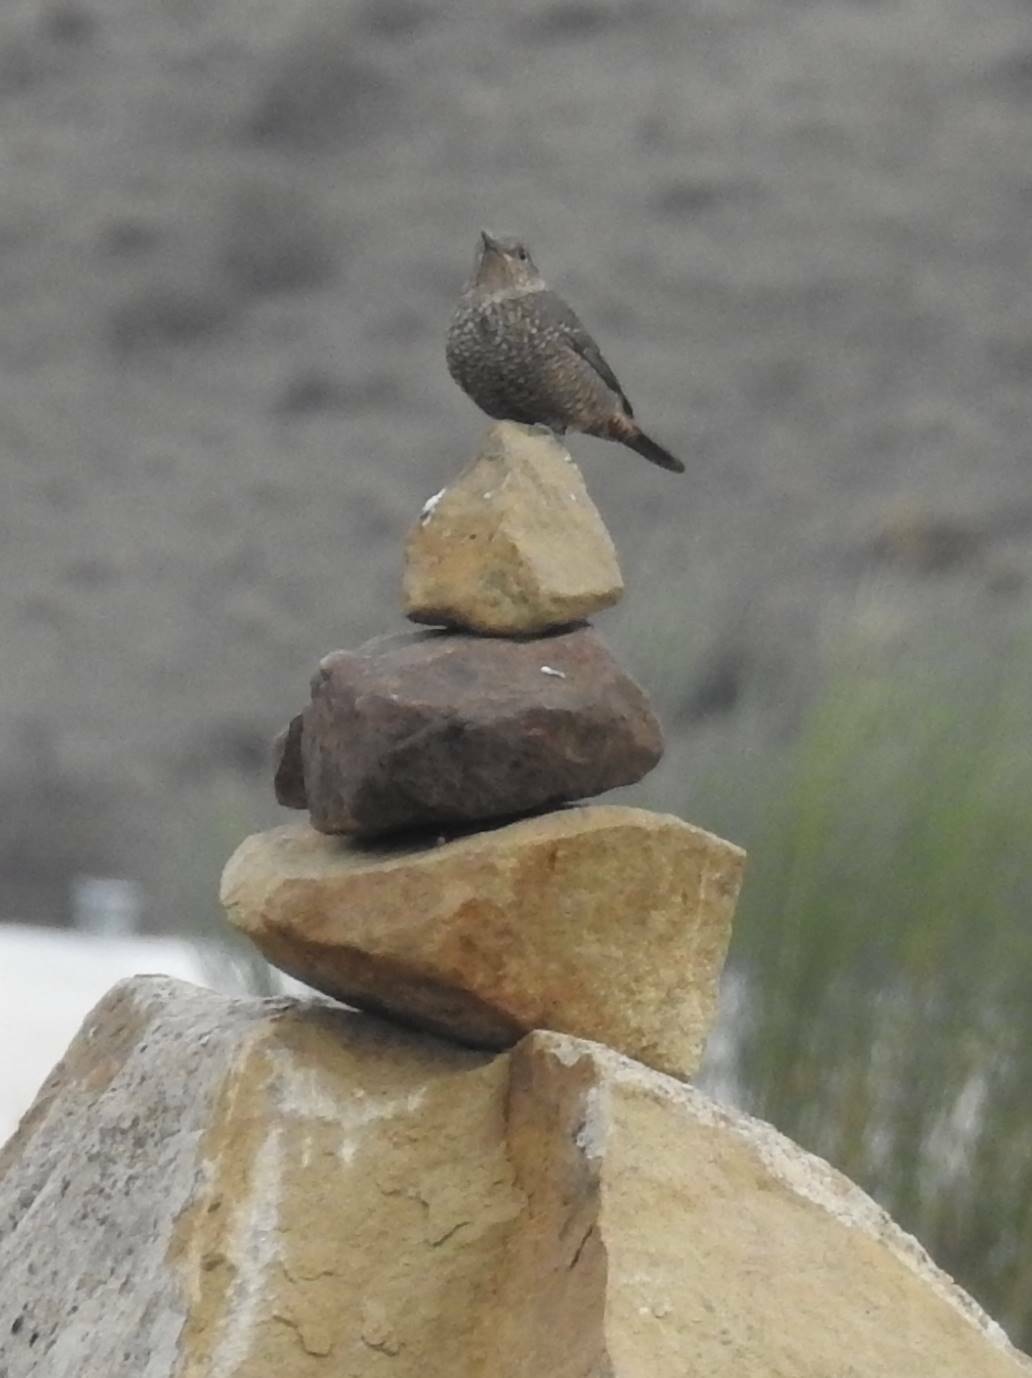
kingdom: Animalia
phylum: Chordata
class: Aves
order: Passeriformes
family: Muscicapidae
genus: Monticola
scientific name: Monticola solitarius
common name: Blue rock thrush
